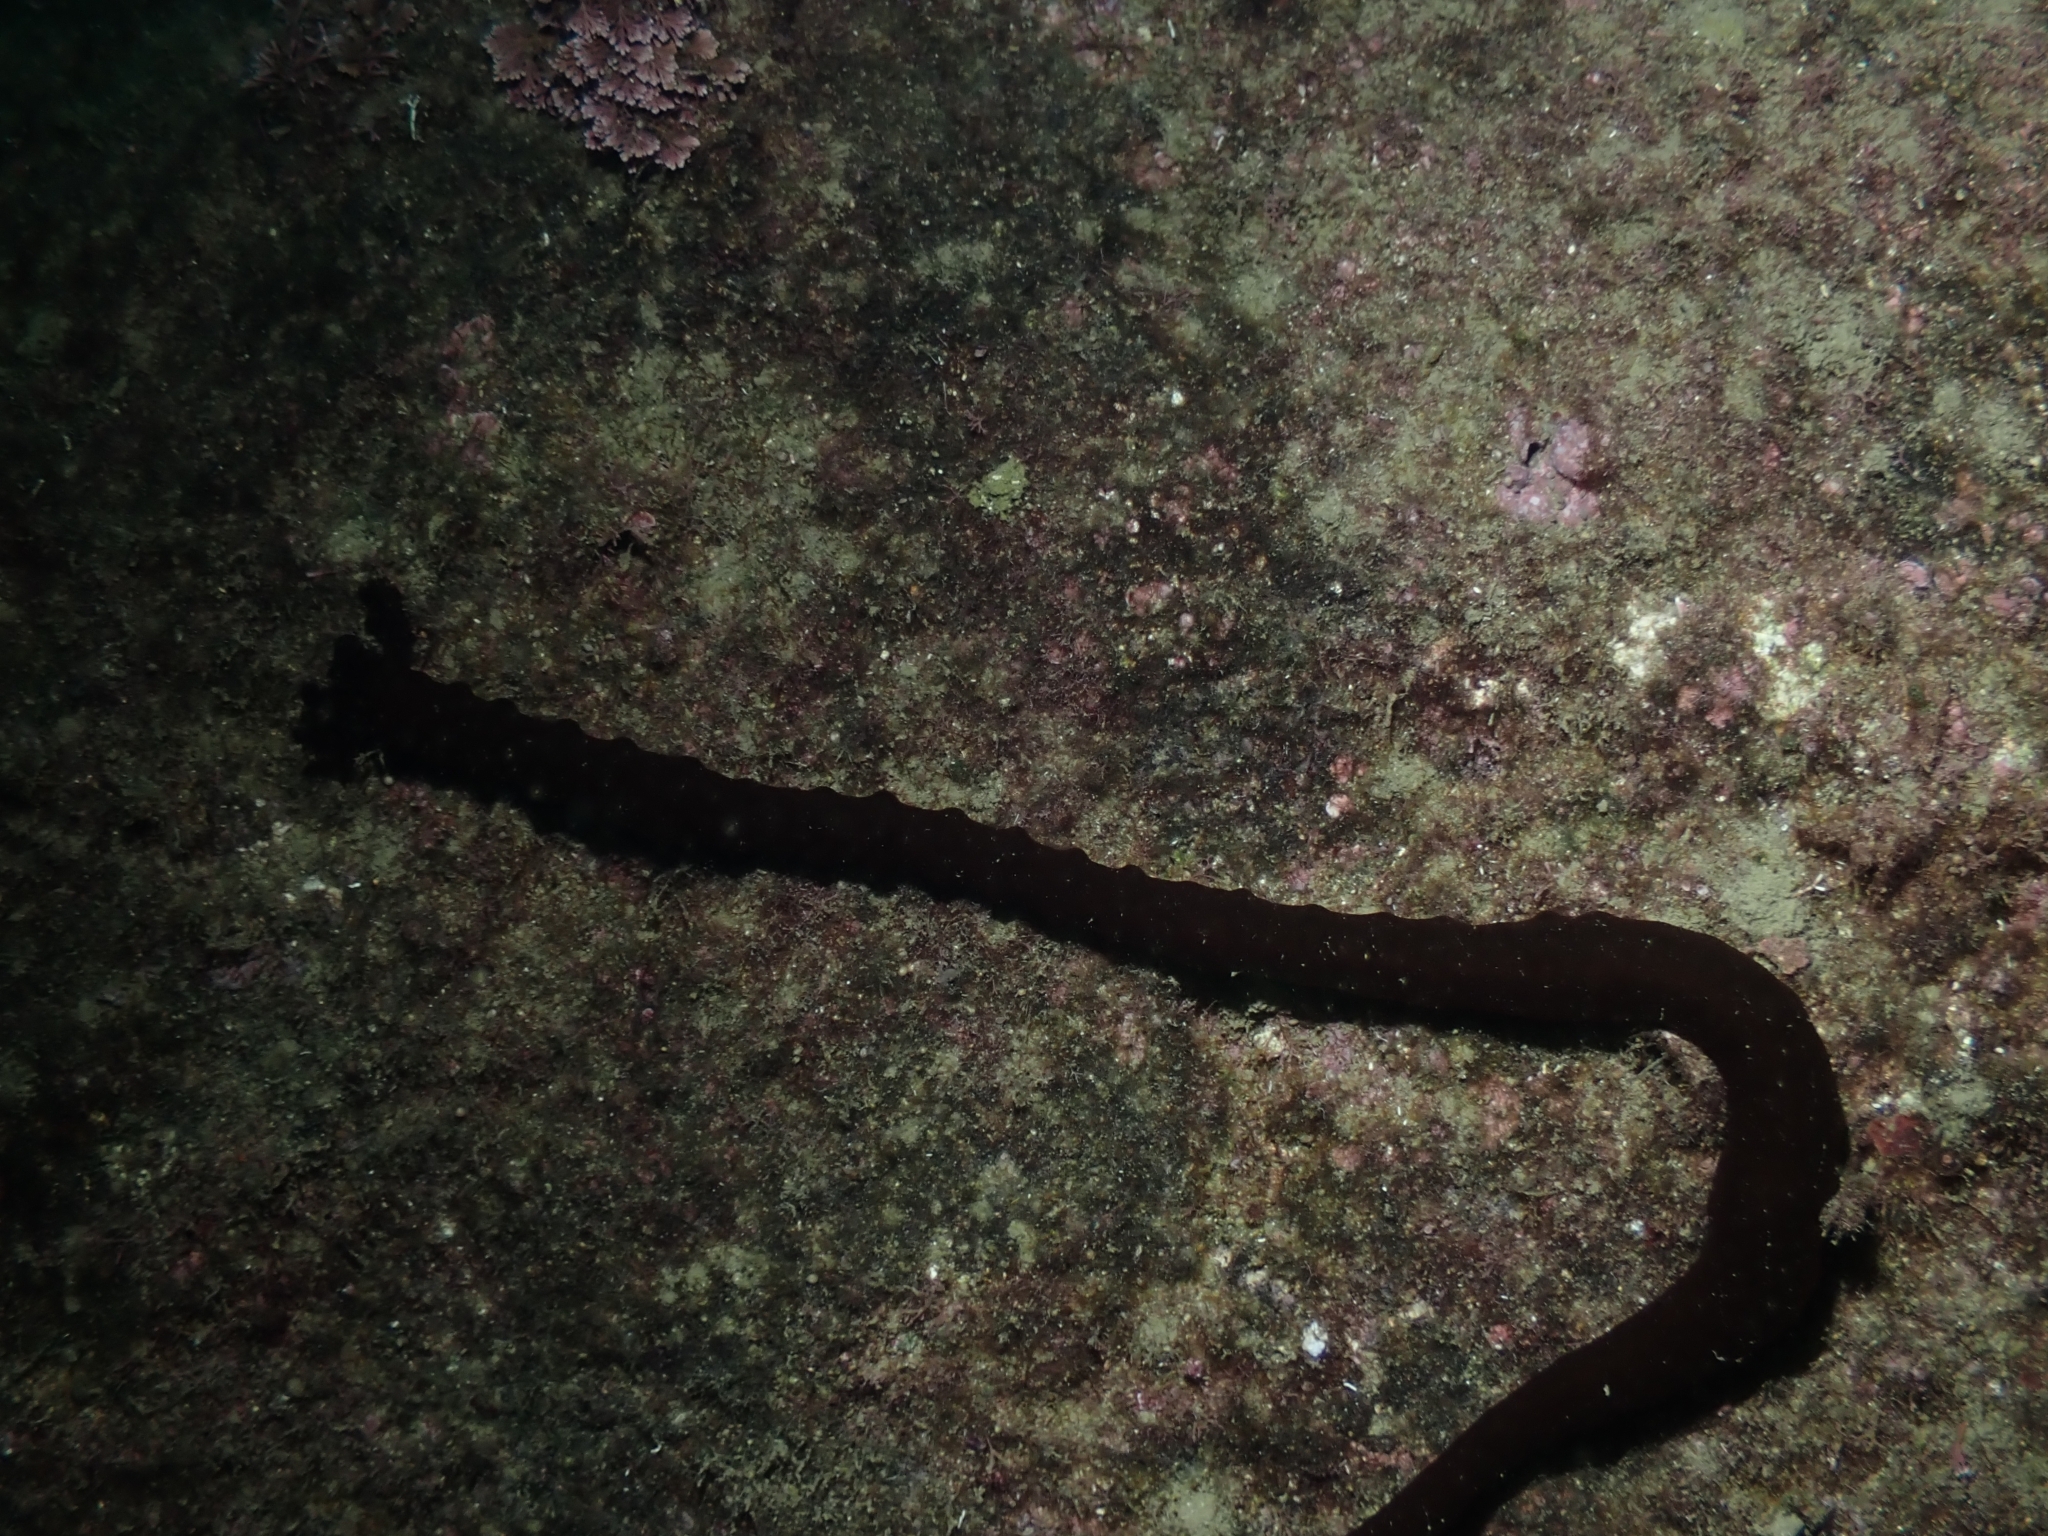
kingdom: Animalia
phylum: Echinodermata
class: Holothuroidea
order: Apodida
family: Synaptidae
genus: Synaptula
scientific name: Synaptula reciprocans
